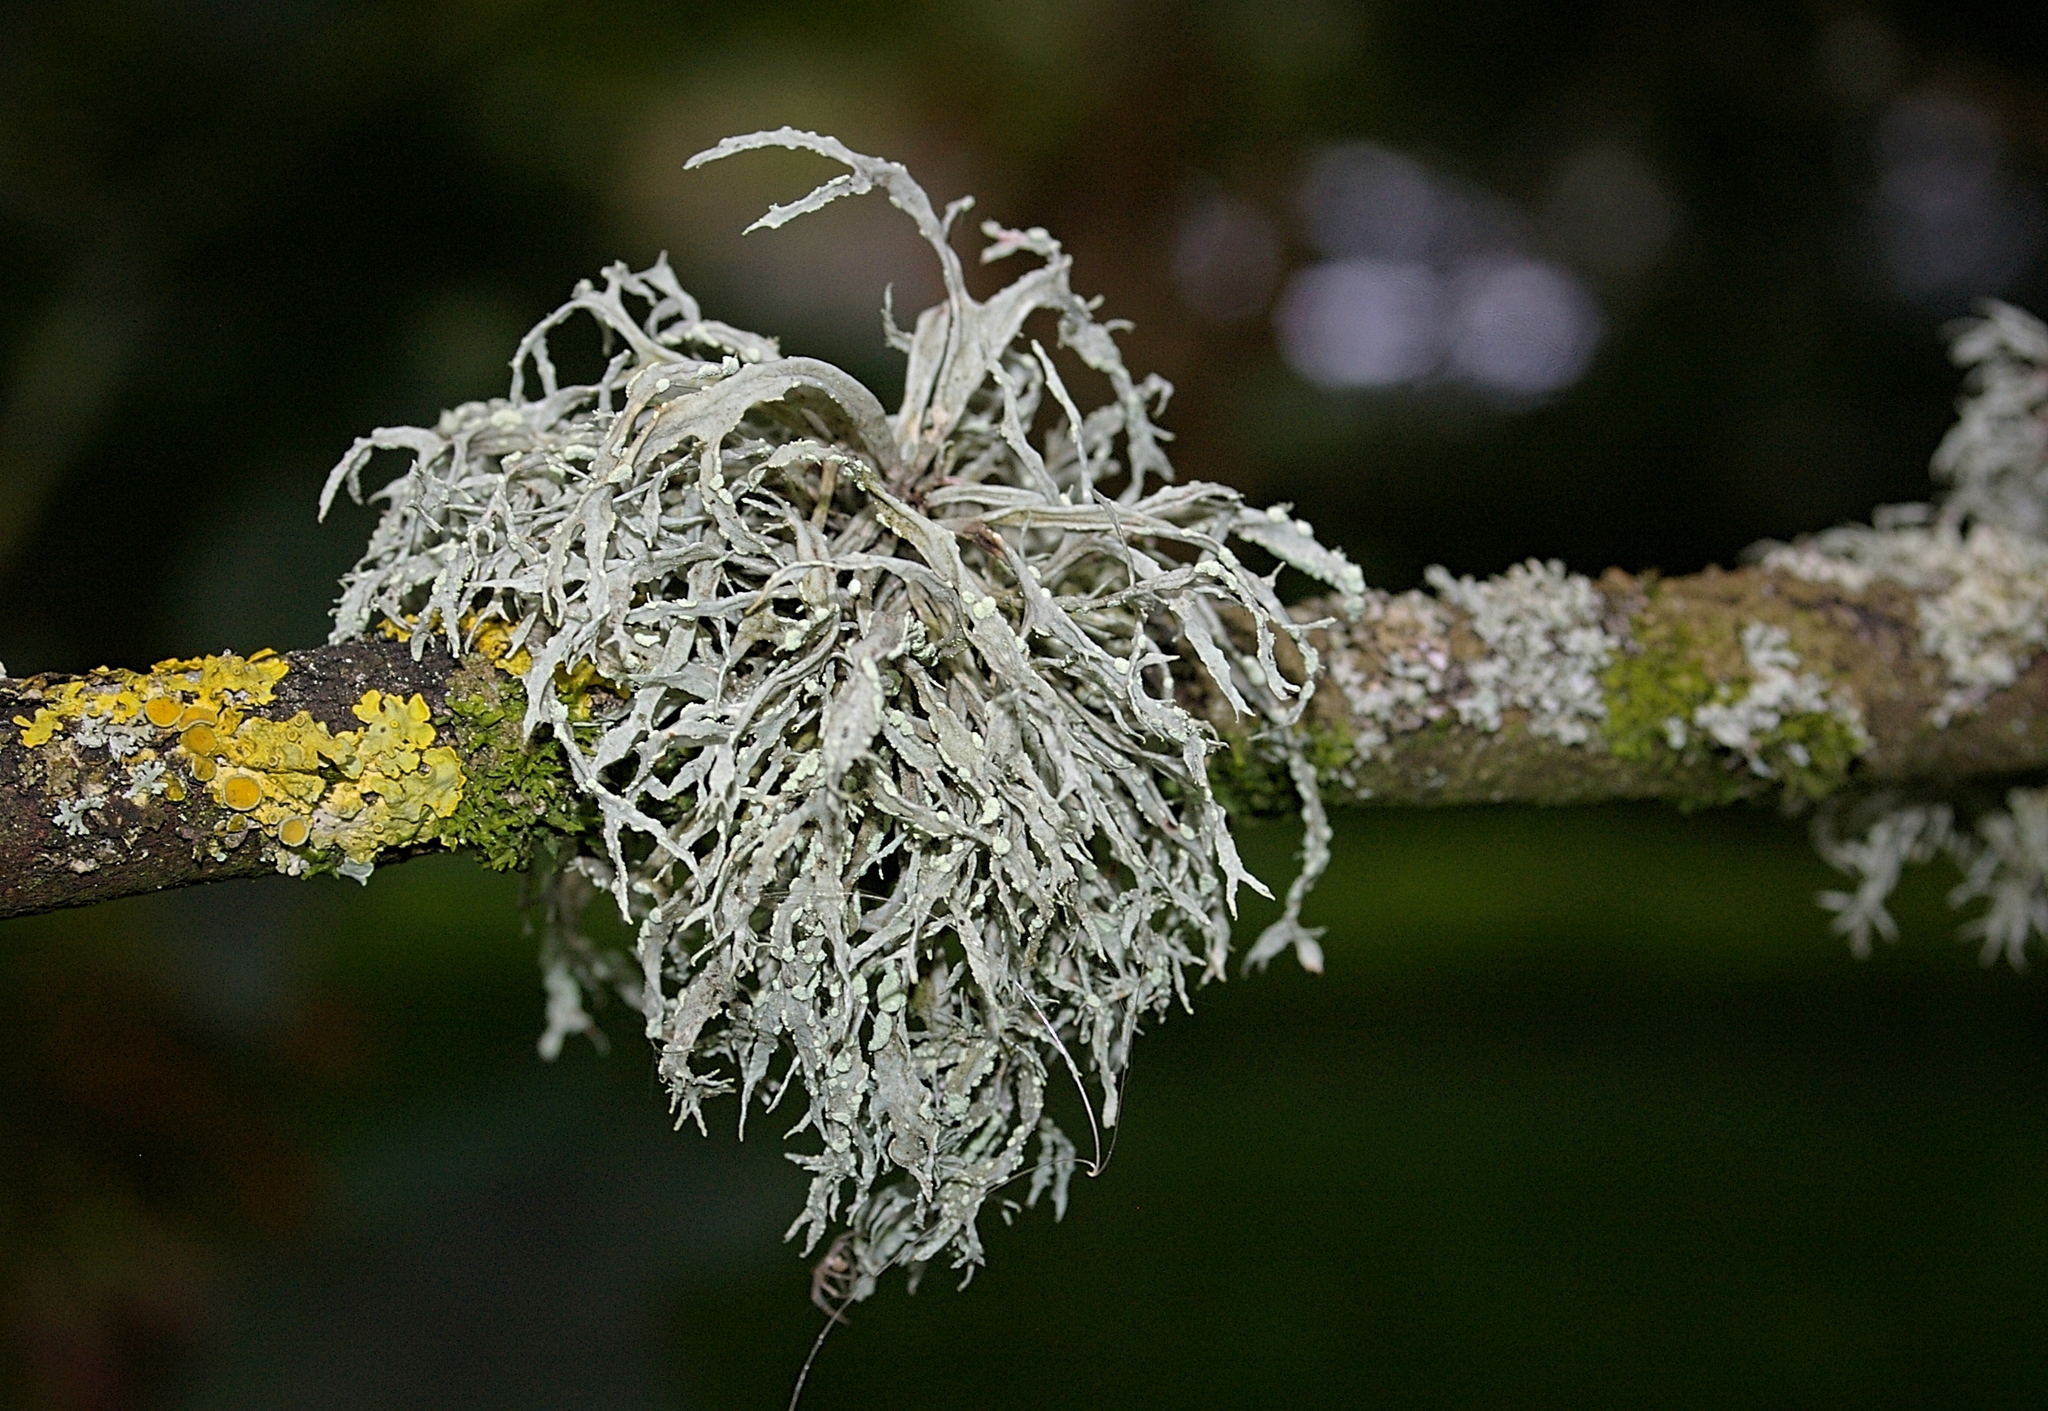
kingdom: Fungi
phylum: Ascomycota
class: Lecanoromycetes
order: Lecanorales
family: Ramalinaceae
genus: Ramalina
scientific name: Ramalina farinacea
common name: Farinose cartilage lichen
